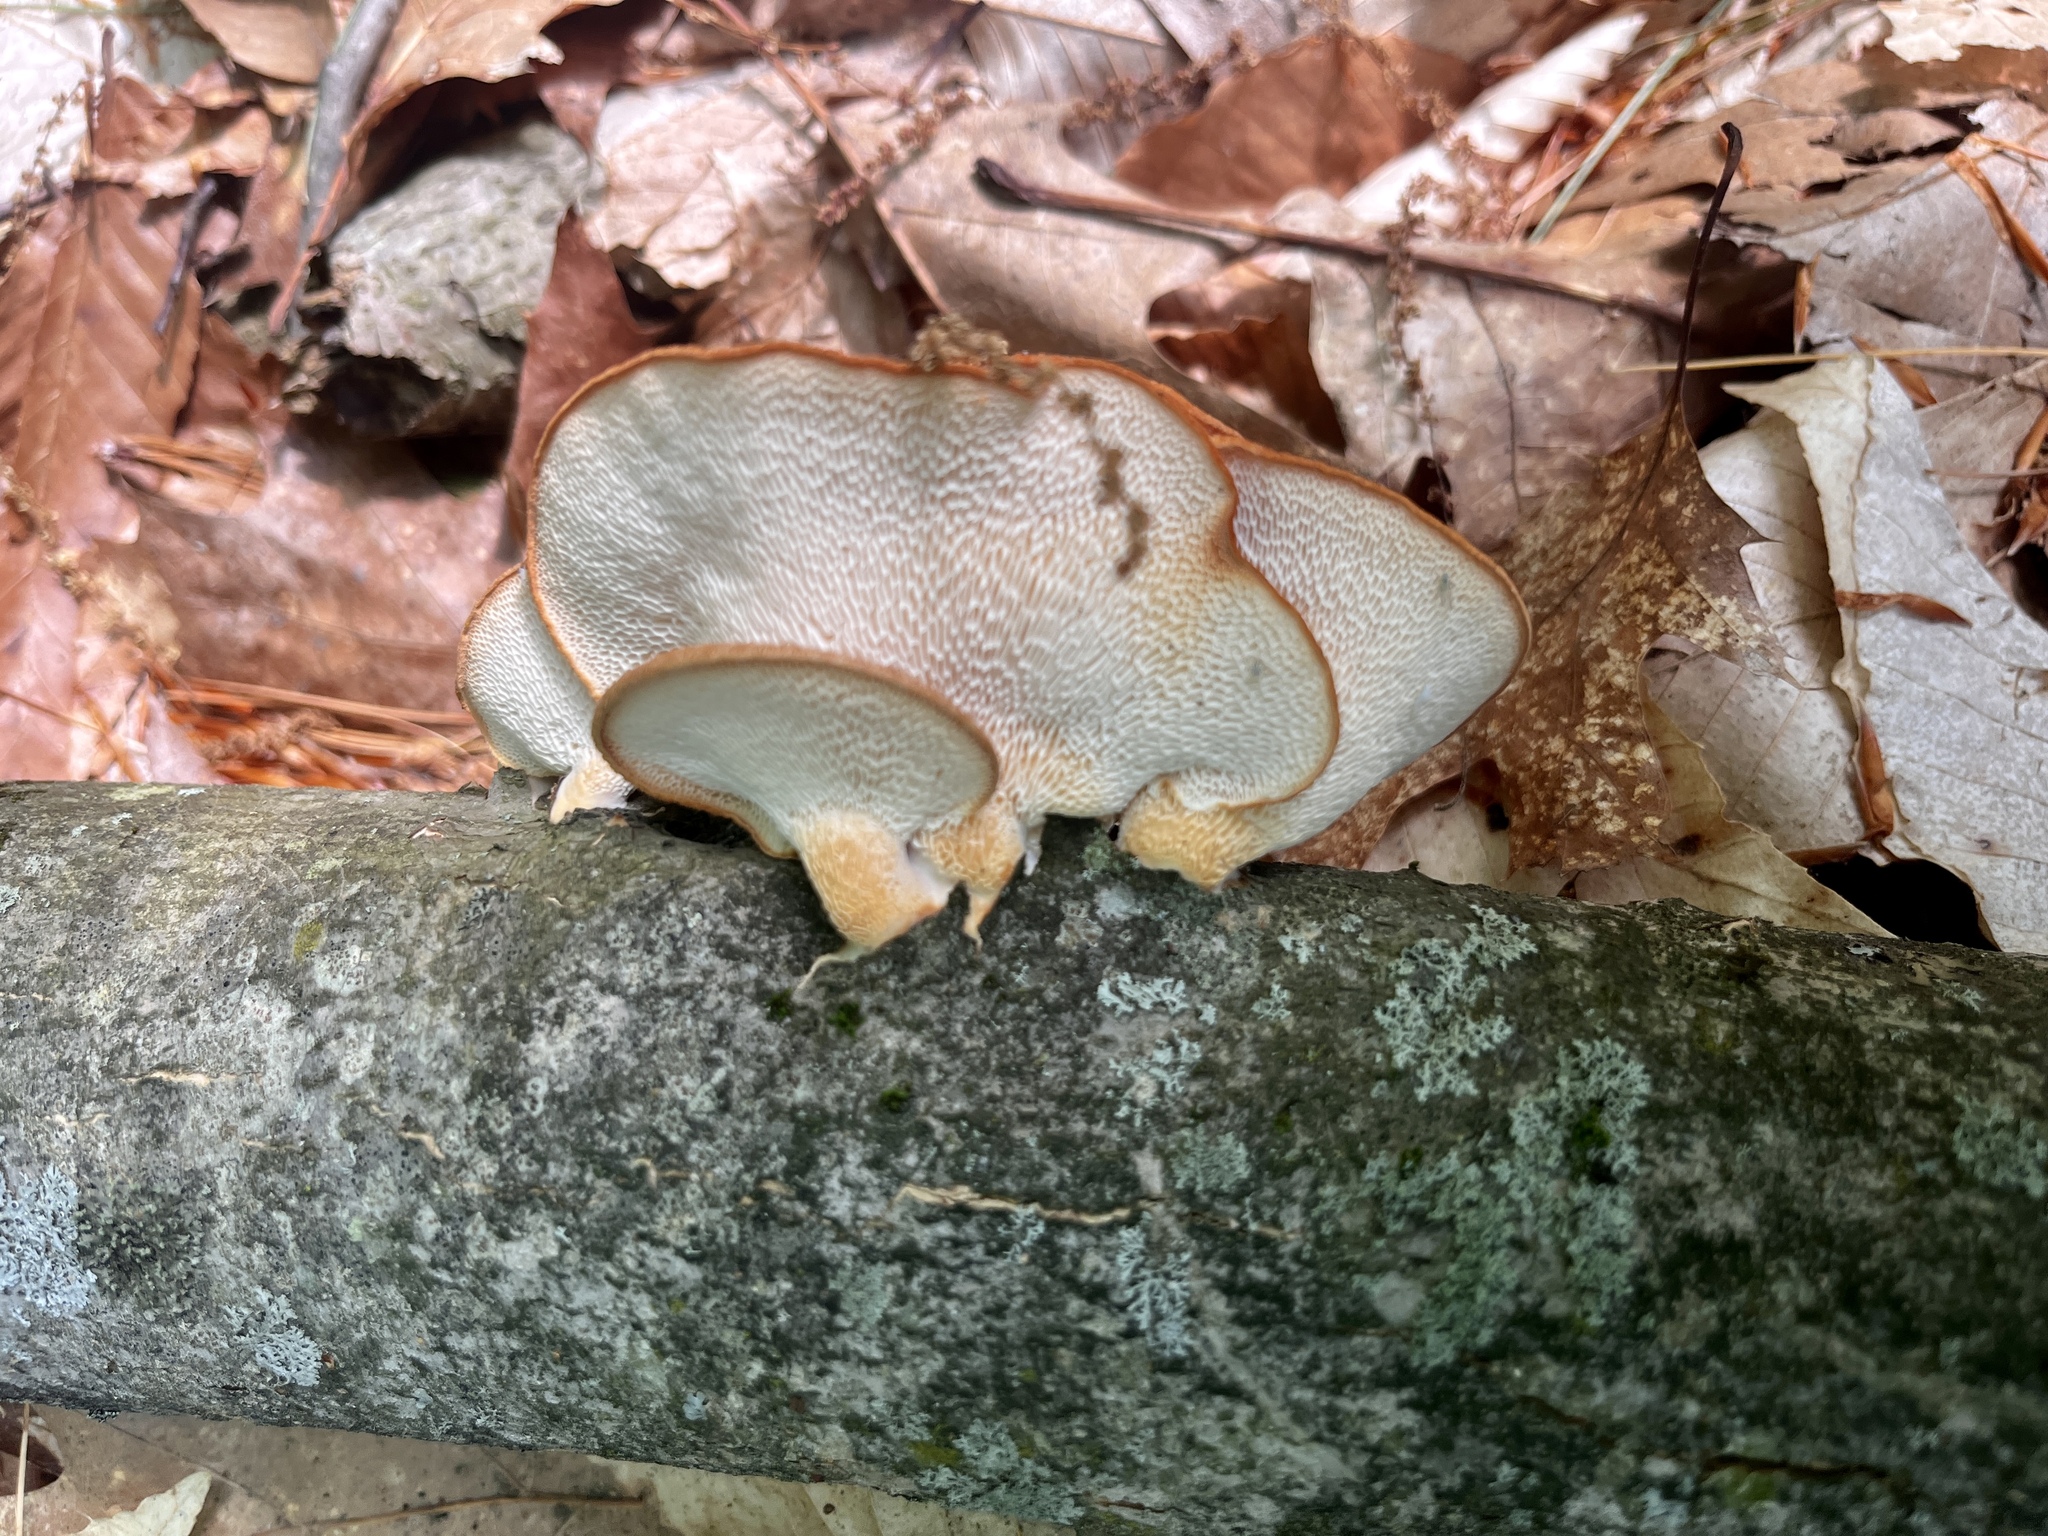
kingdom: Fungi
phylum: Basidiomycota
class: Agaricomycetes
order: Polyporales
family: Polyporaceae
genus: Neofavolus
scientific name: Neofavolus alveolaris
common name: Hexagonal-pored polypore
